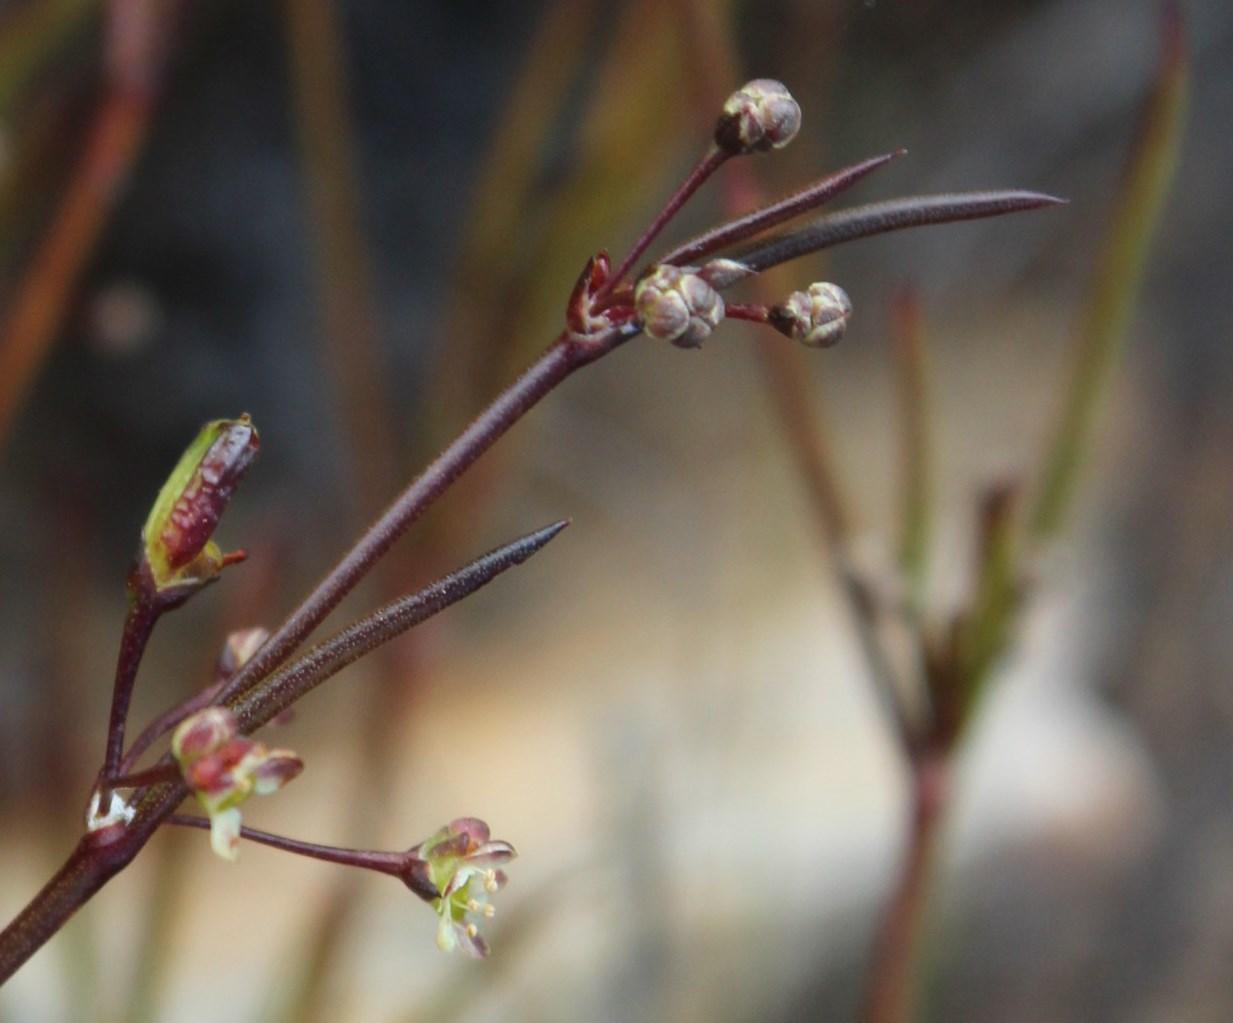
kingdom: Plantae
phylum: Tracheophyta
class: Magnoliopsida
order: Apiales
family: Apiaceae
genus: Centella
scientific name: Centella linifolia
